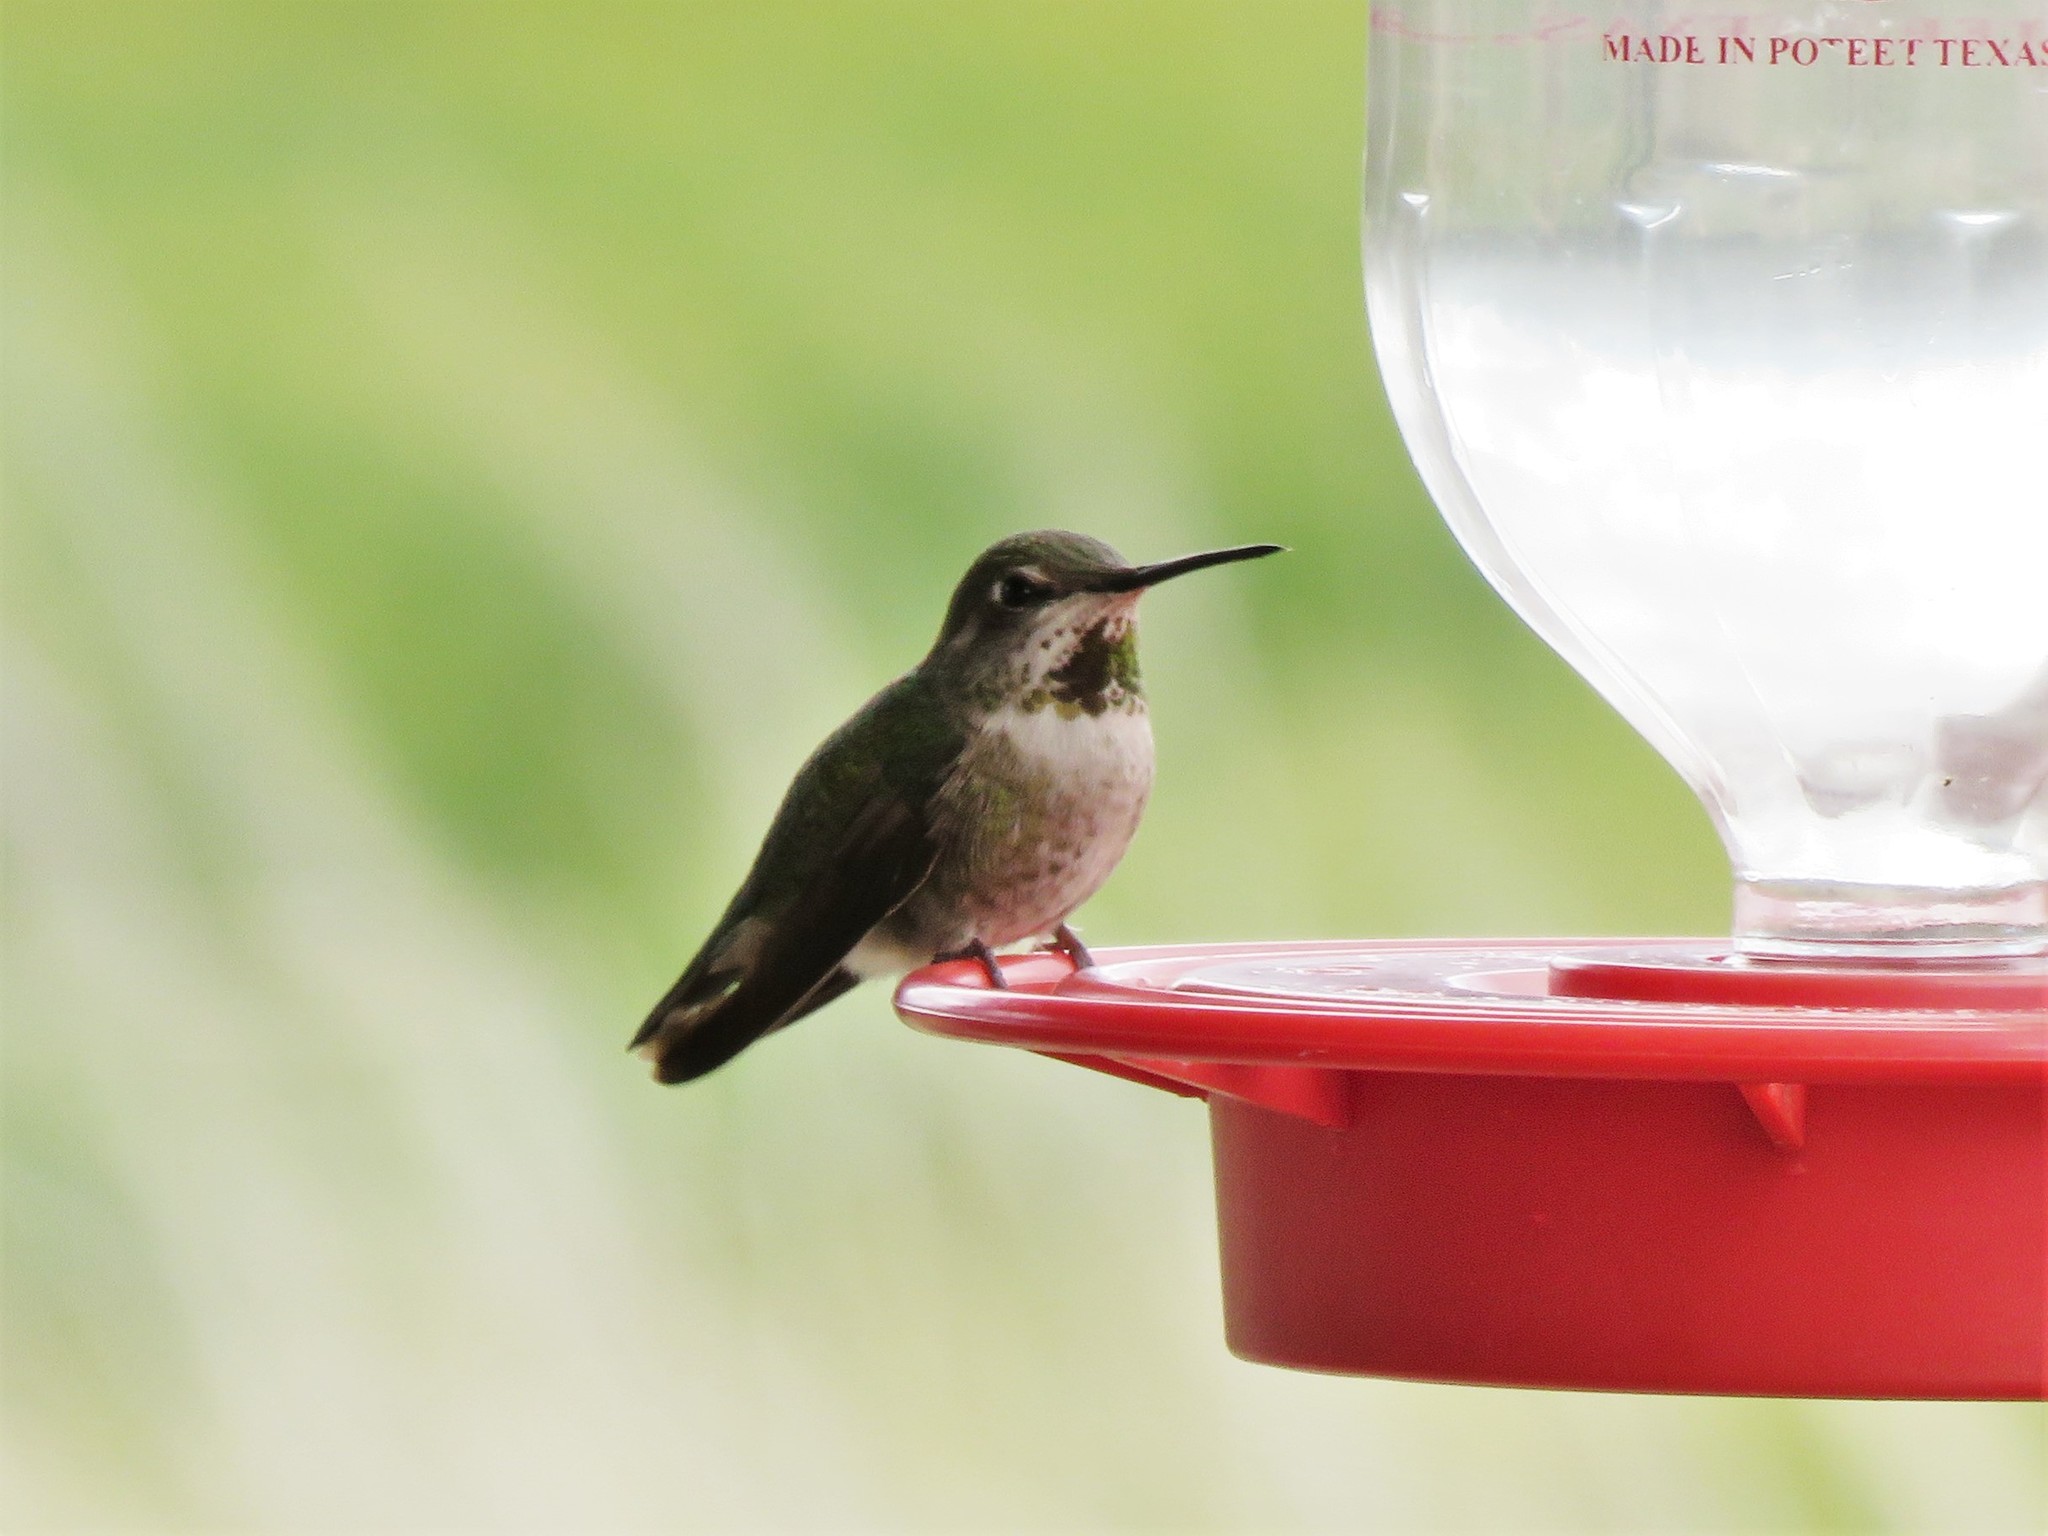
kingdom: Animalia
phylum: Chordata
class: Aves
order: Apodiformes
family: Trochilidae
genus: Calypte
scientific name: Calypte anna
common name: Anna's hummingbird
